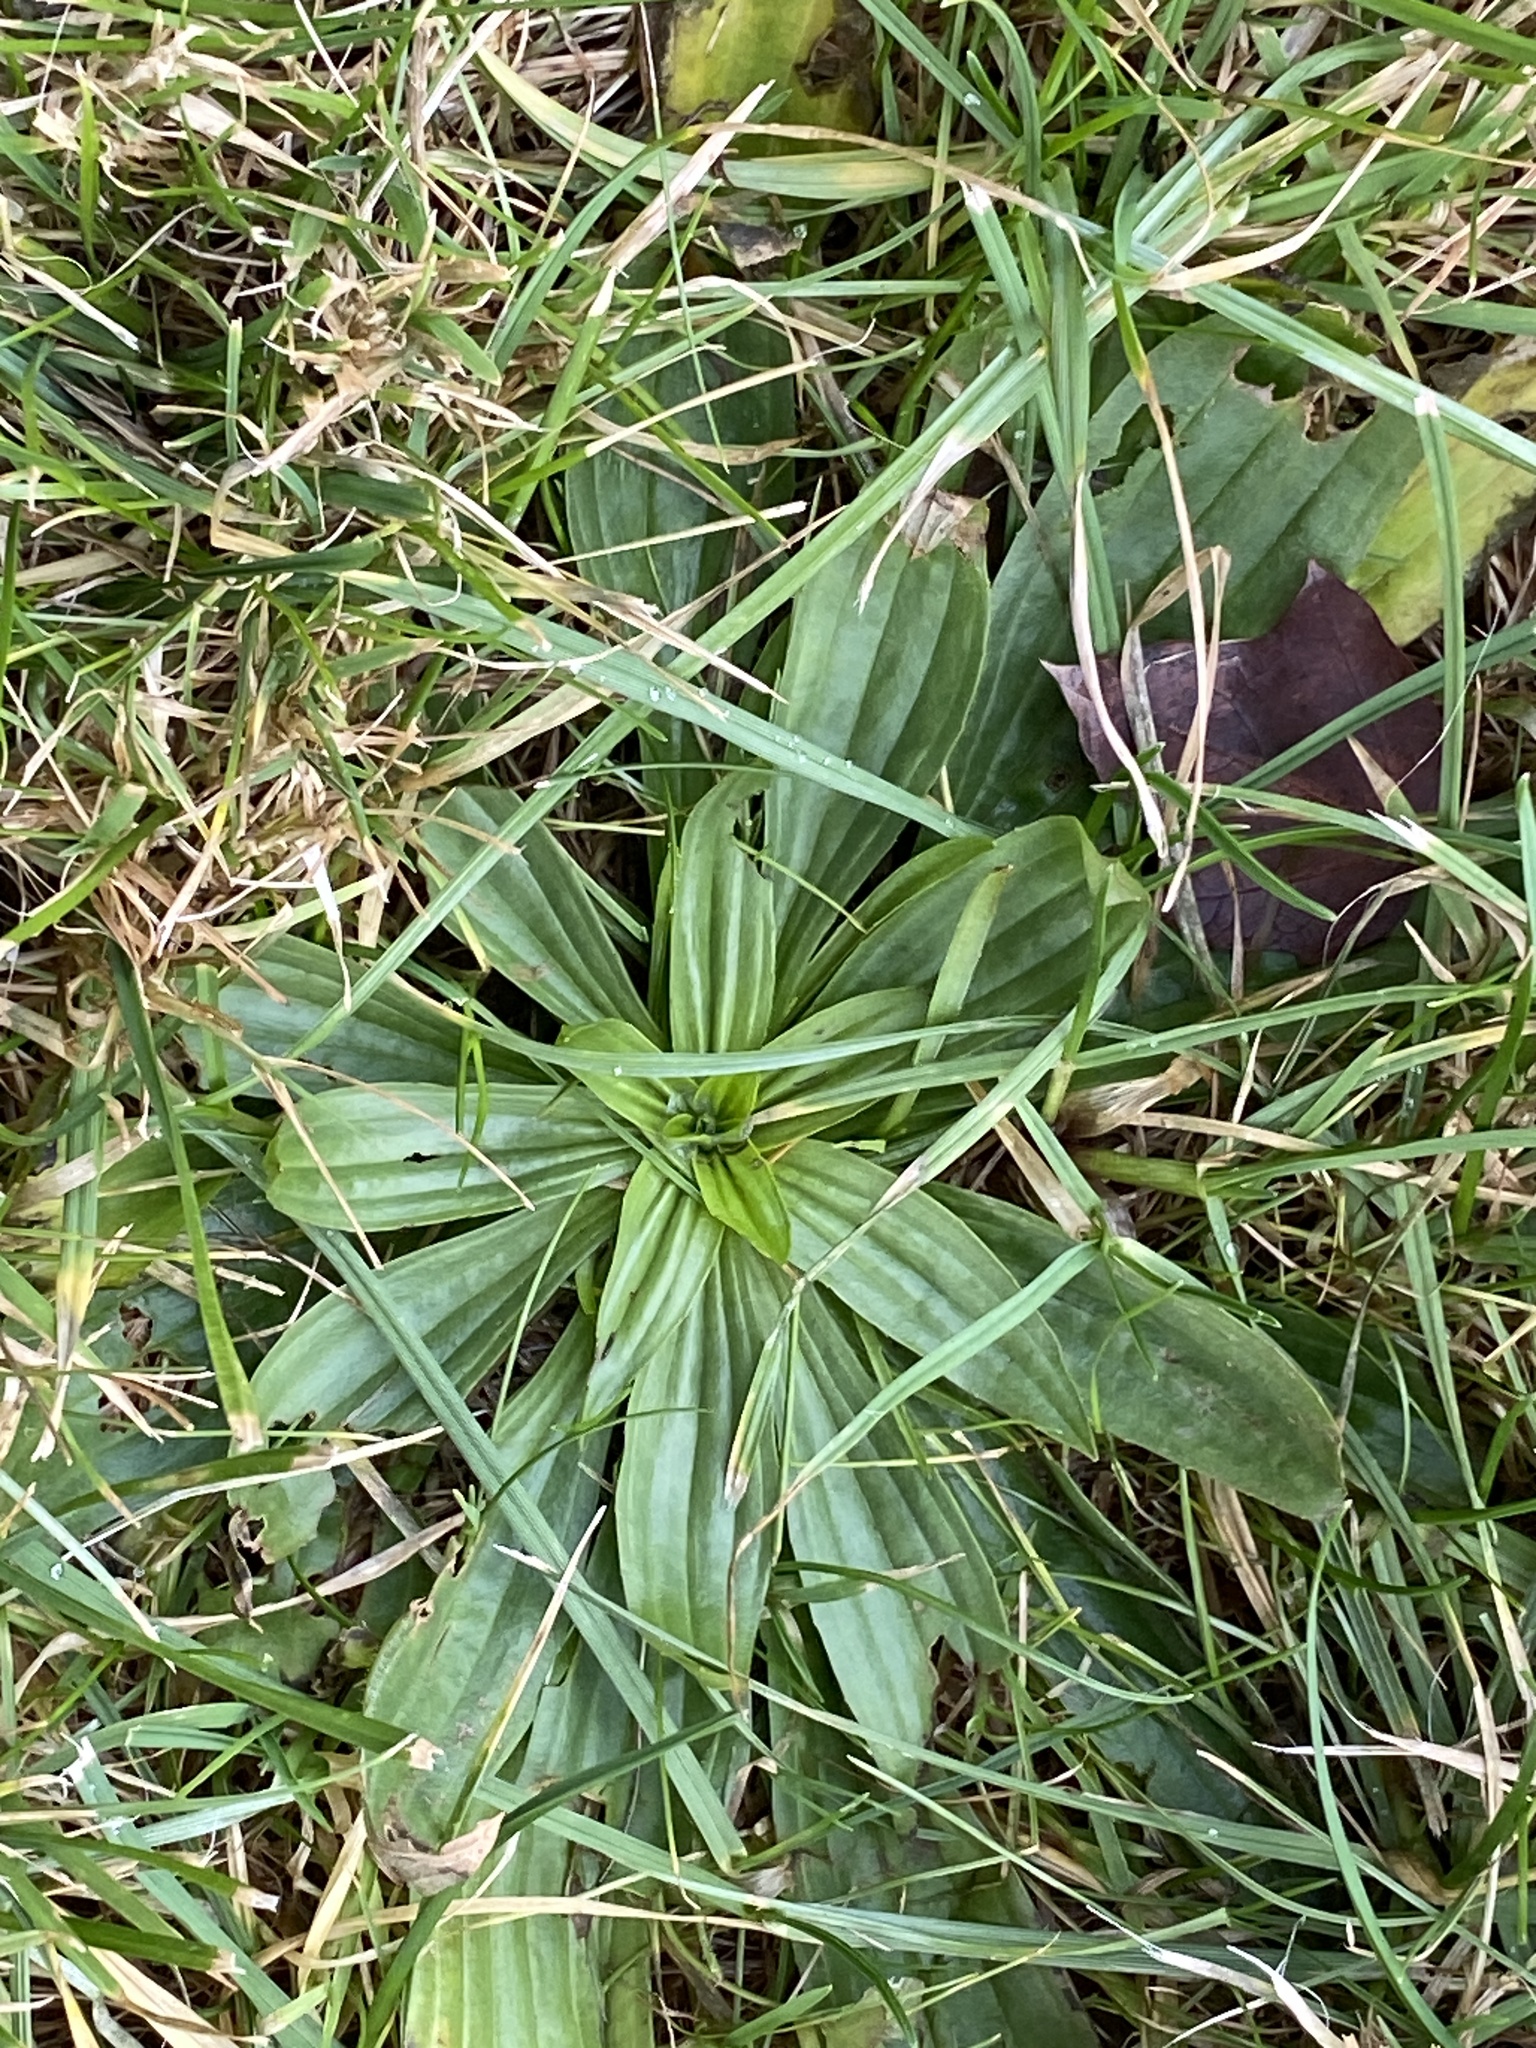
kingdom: Plantae
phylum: Tracheophyta
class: Magnoliopsida
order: Lamiales
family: Plantaginaceae
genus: Plantago
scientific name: Plantago lanceolata
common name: Ribwort plantain
